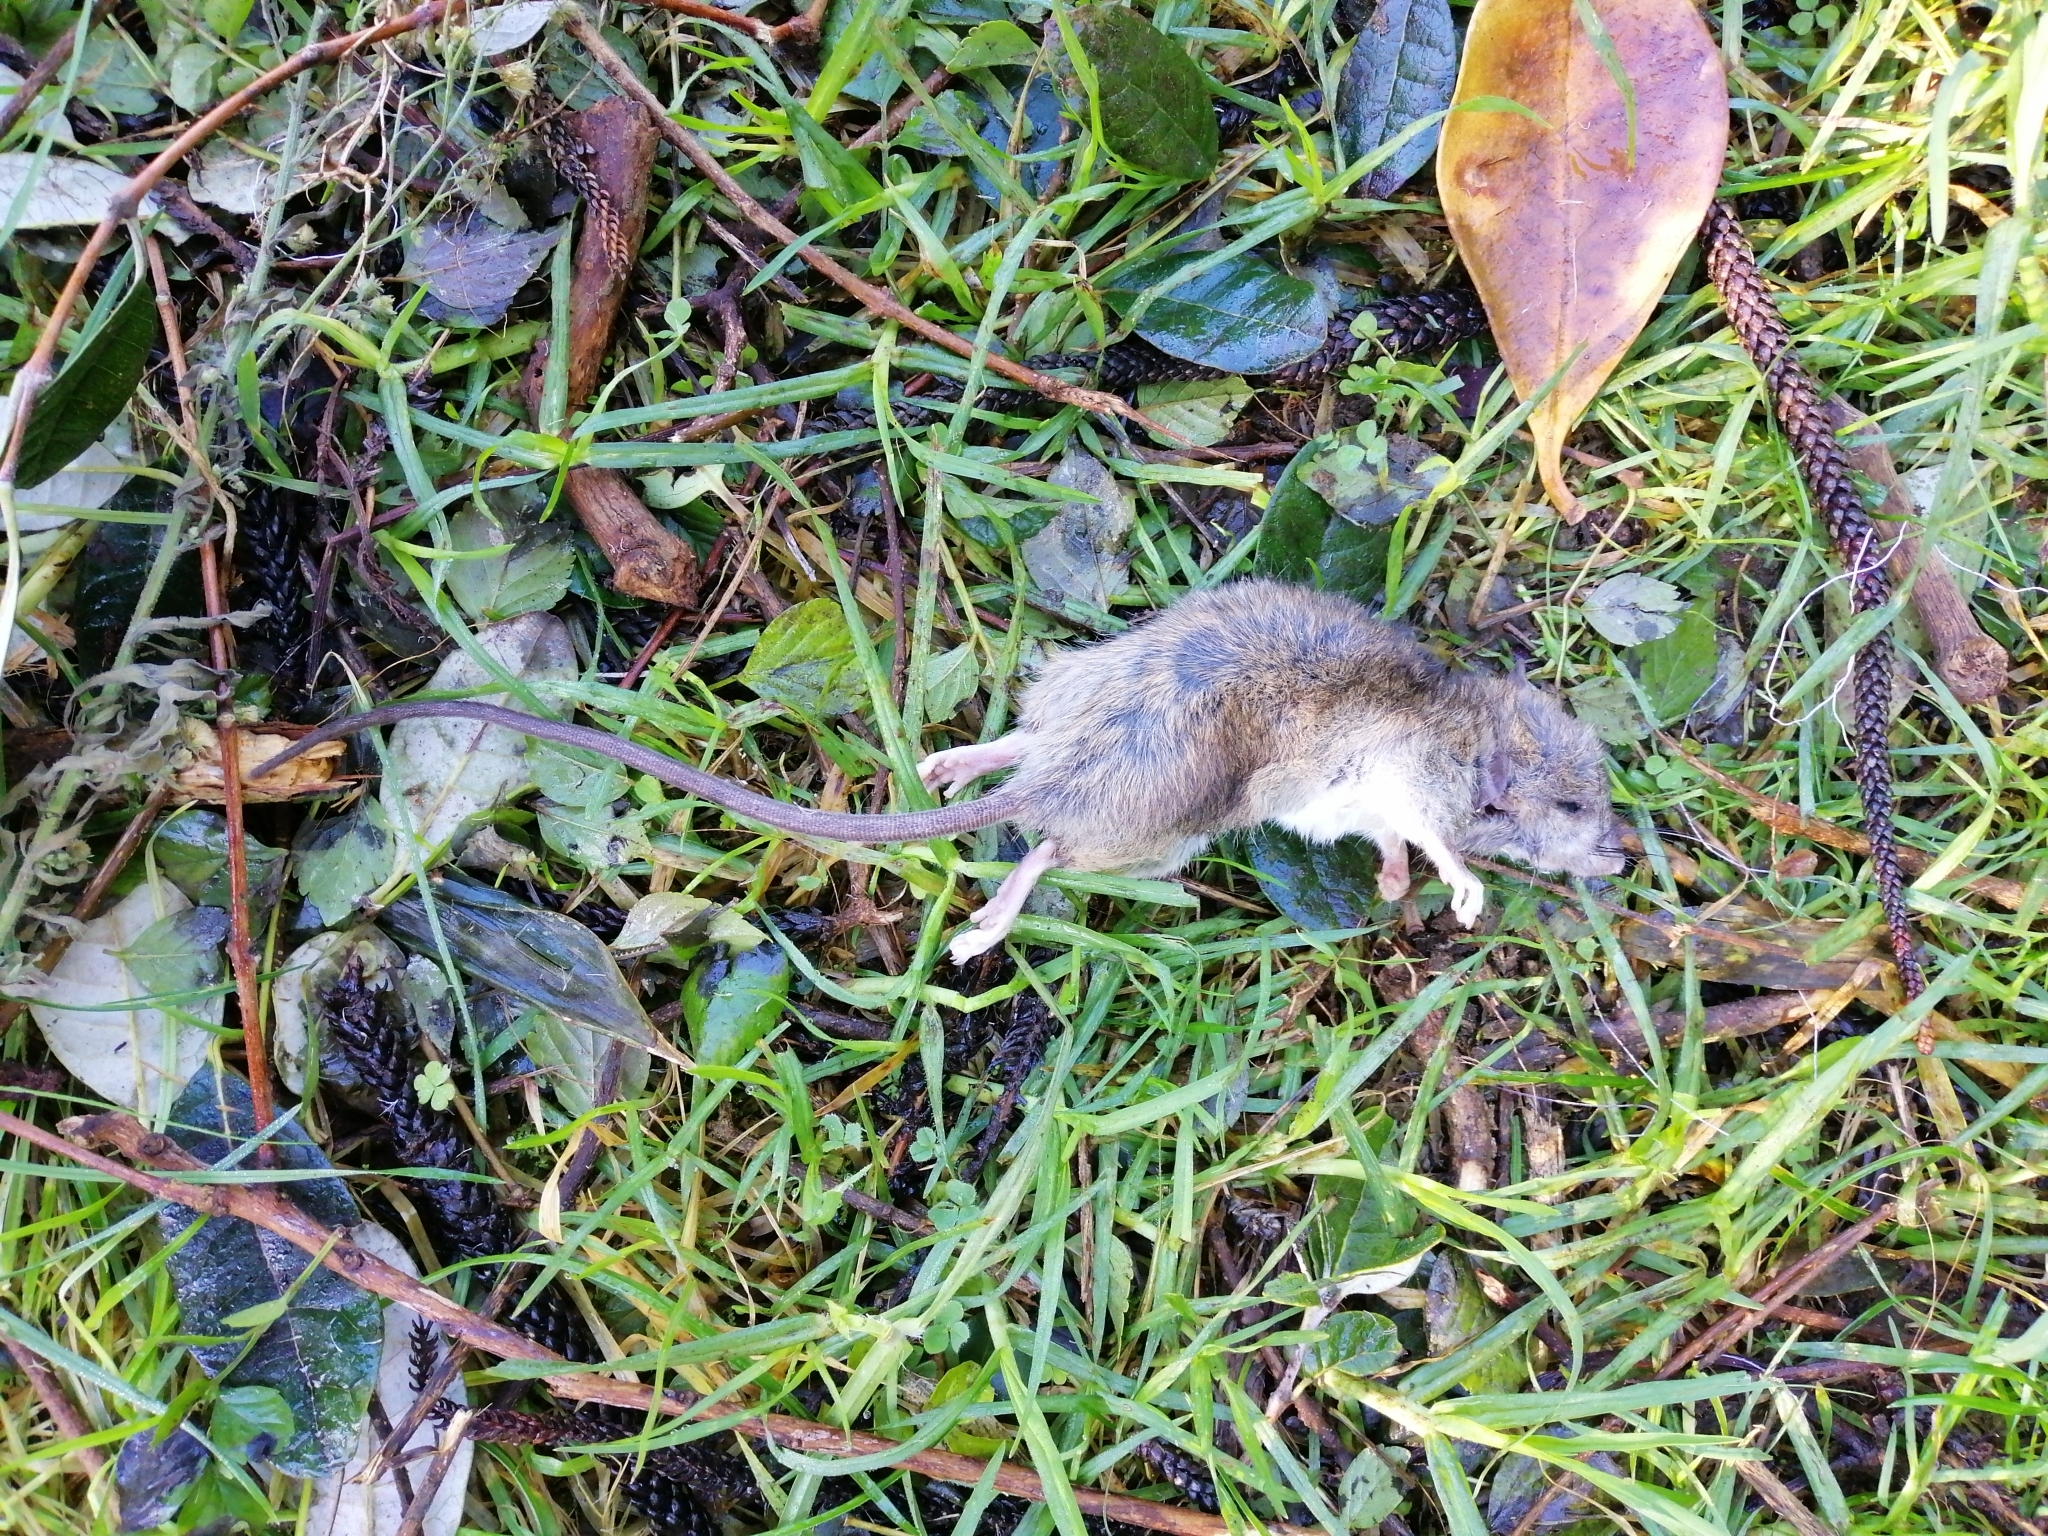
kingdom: Animalia
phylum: Chordata
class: Mammalia
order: Rodentia
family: Muridae
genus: Rattus
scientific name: Rattus rattus
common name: Black rat
